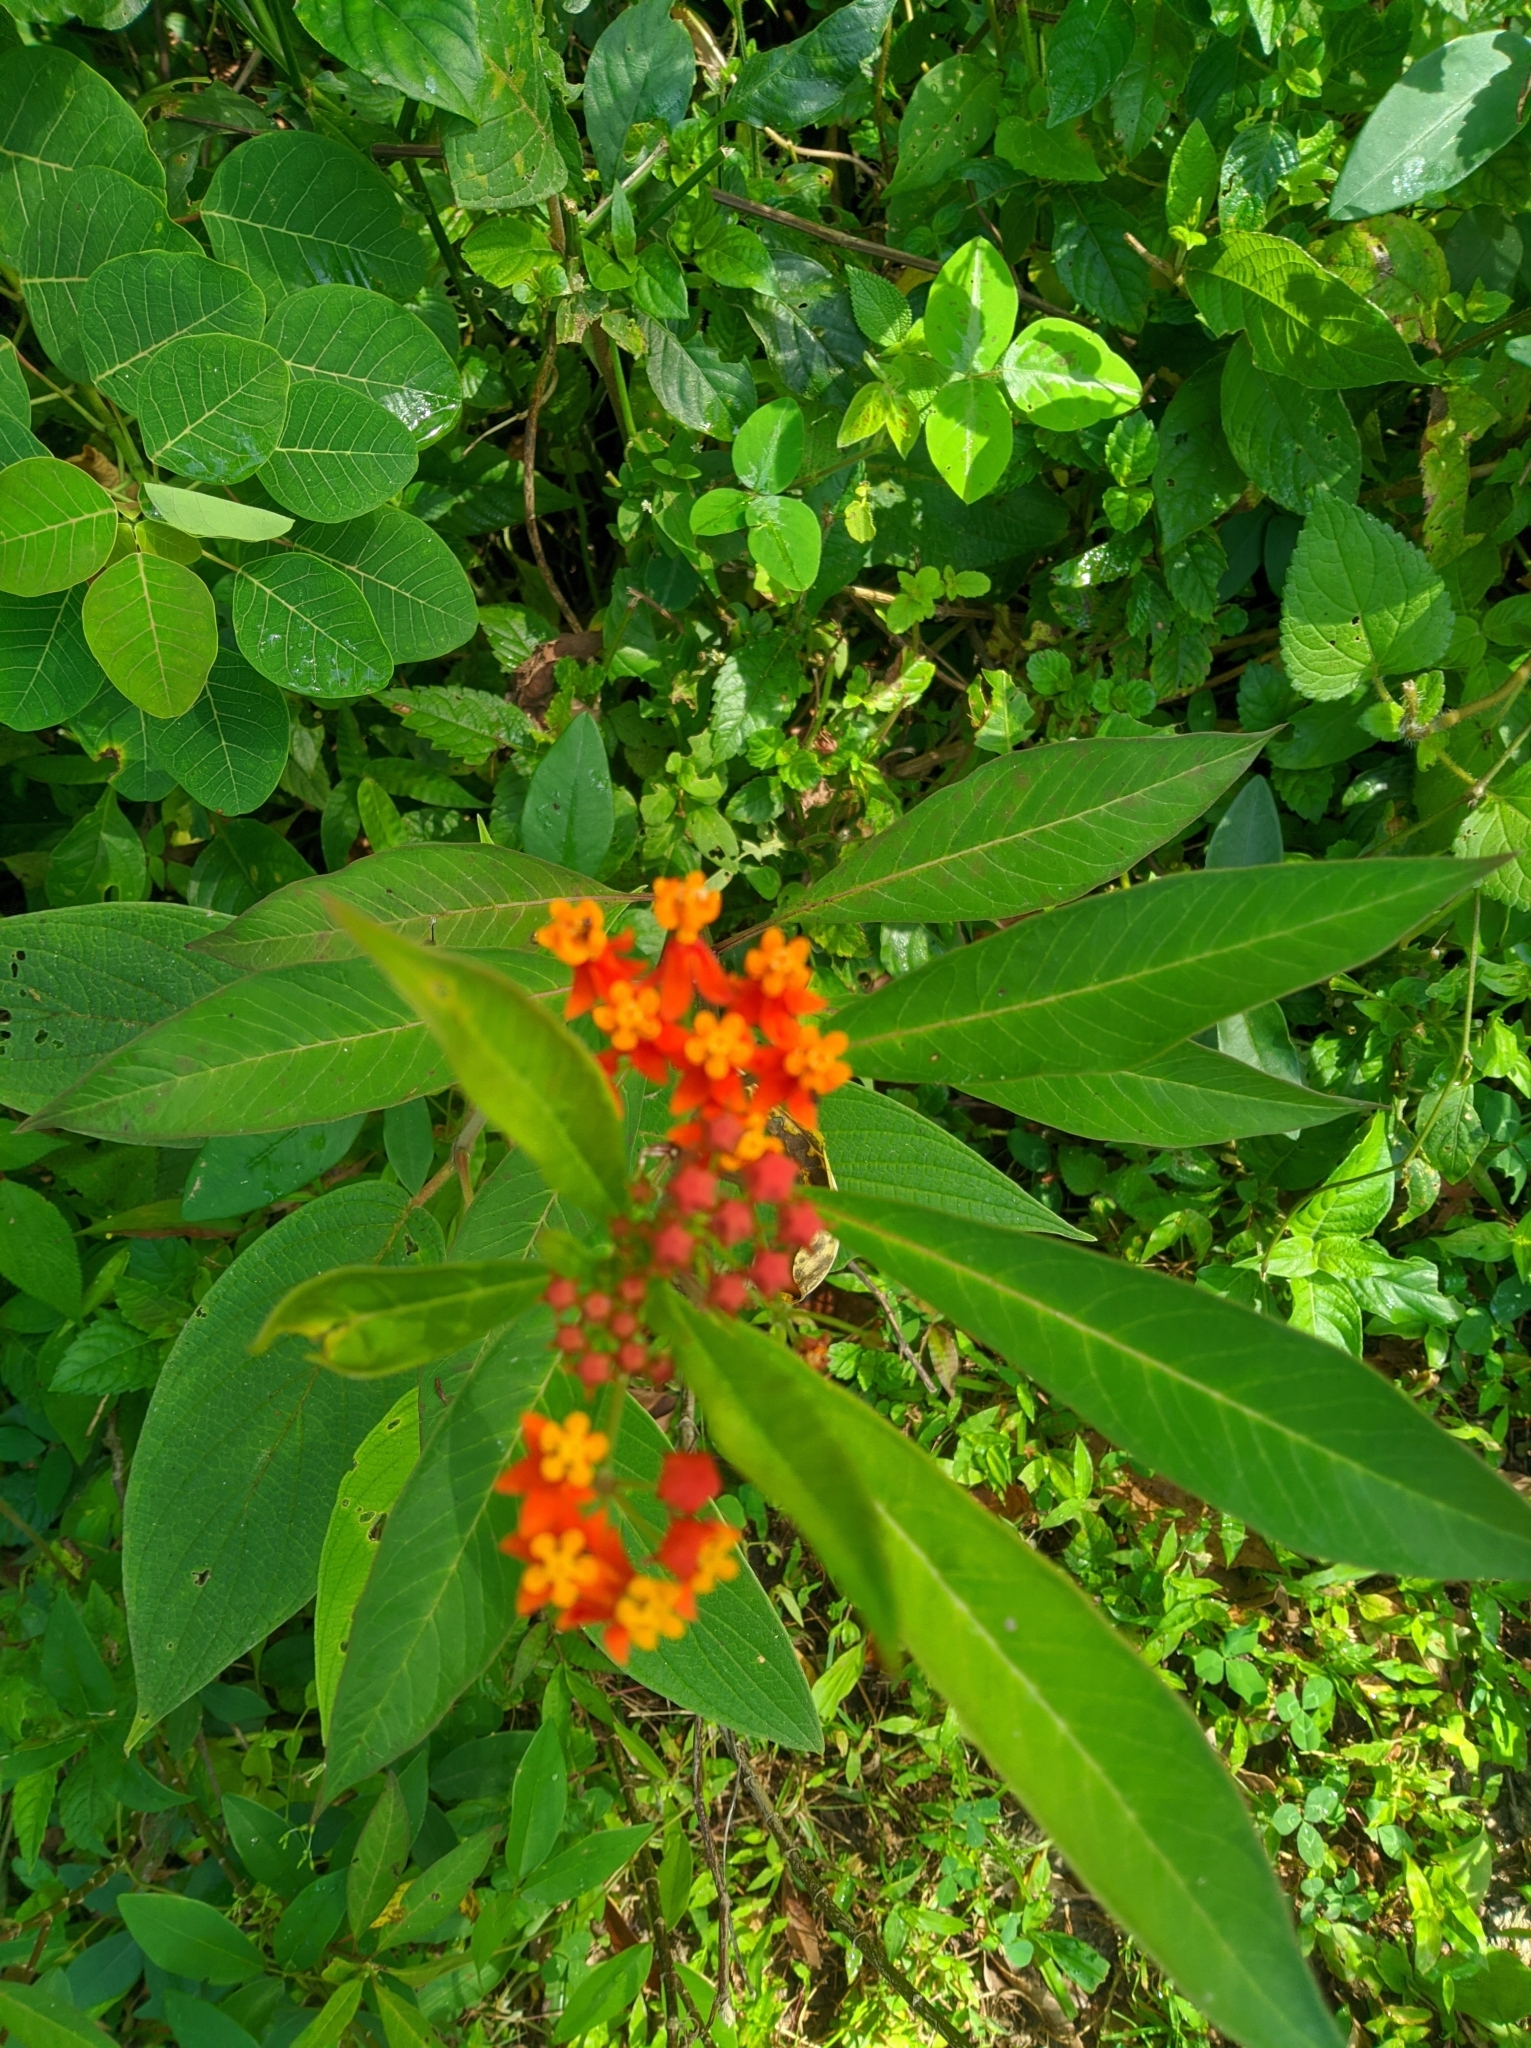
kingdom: Plantae
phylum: Tracheophyta
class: Magnoliopsida
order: Gentianales
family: Apocynaceae
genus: Asclepias
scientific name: Asclepias curassavica
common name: Bloodflower
